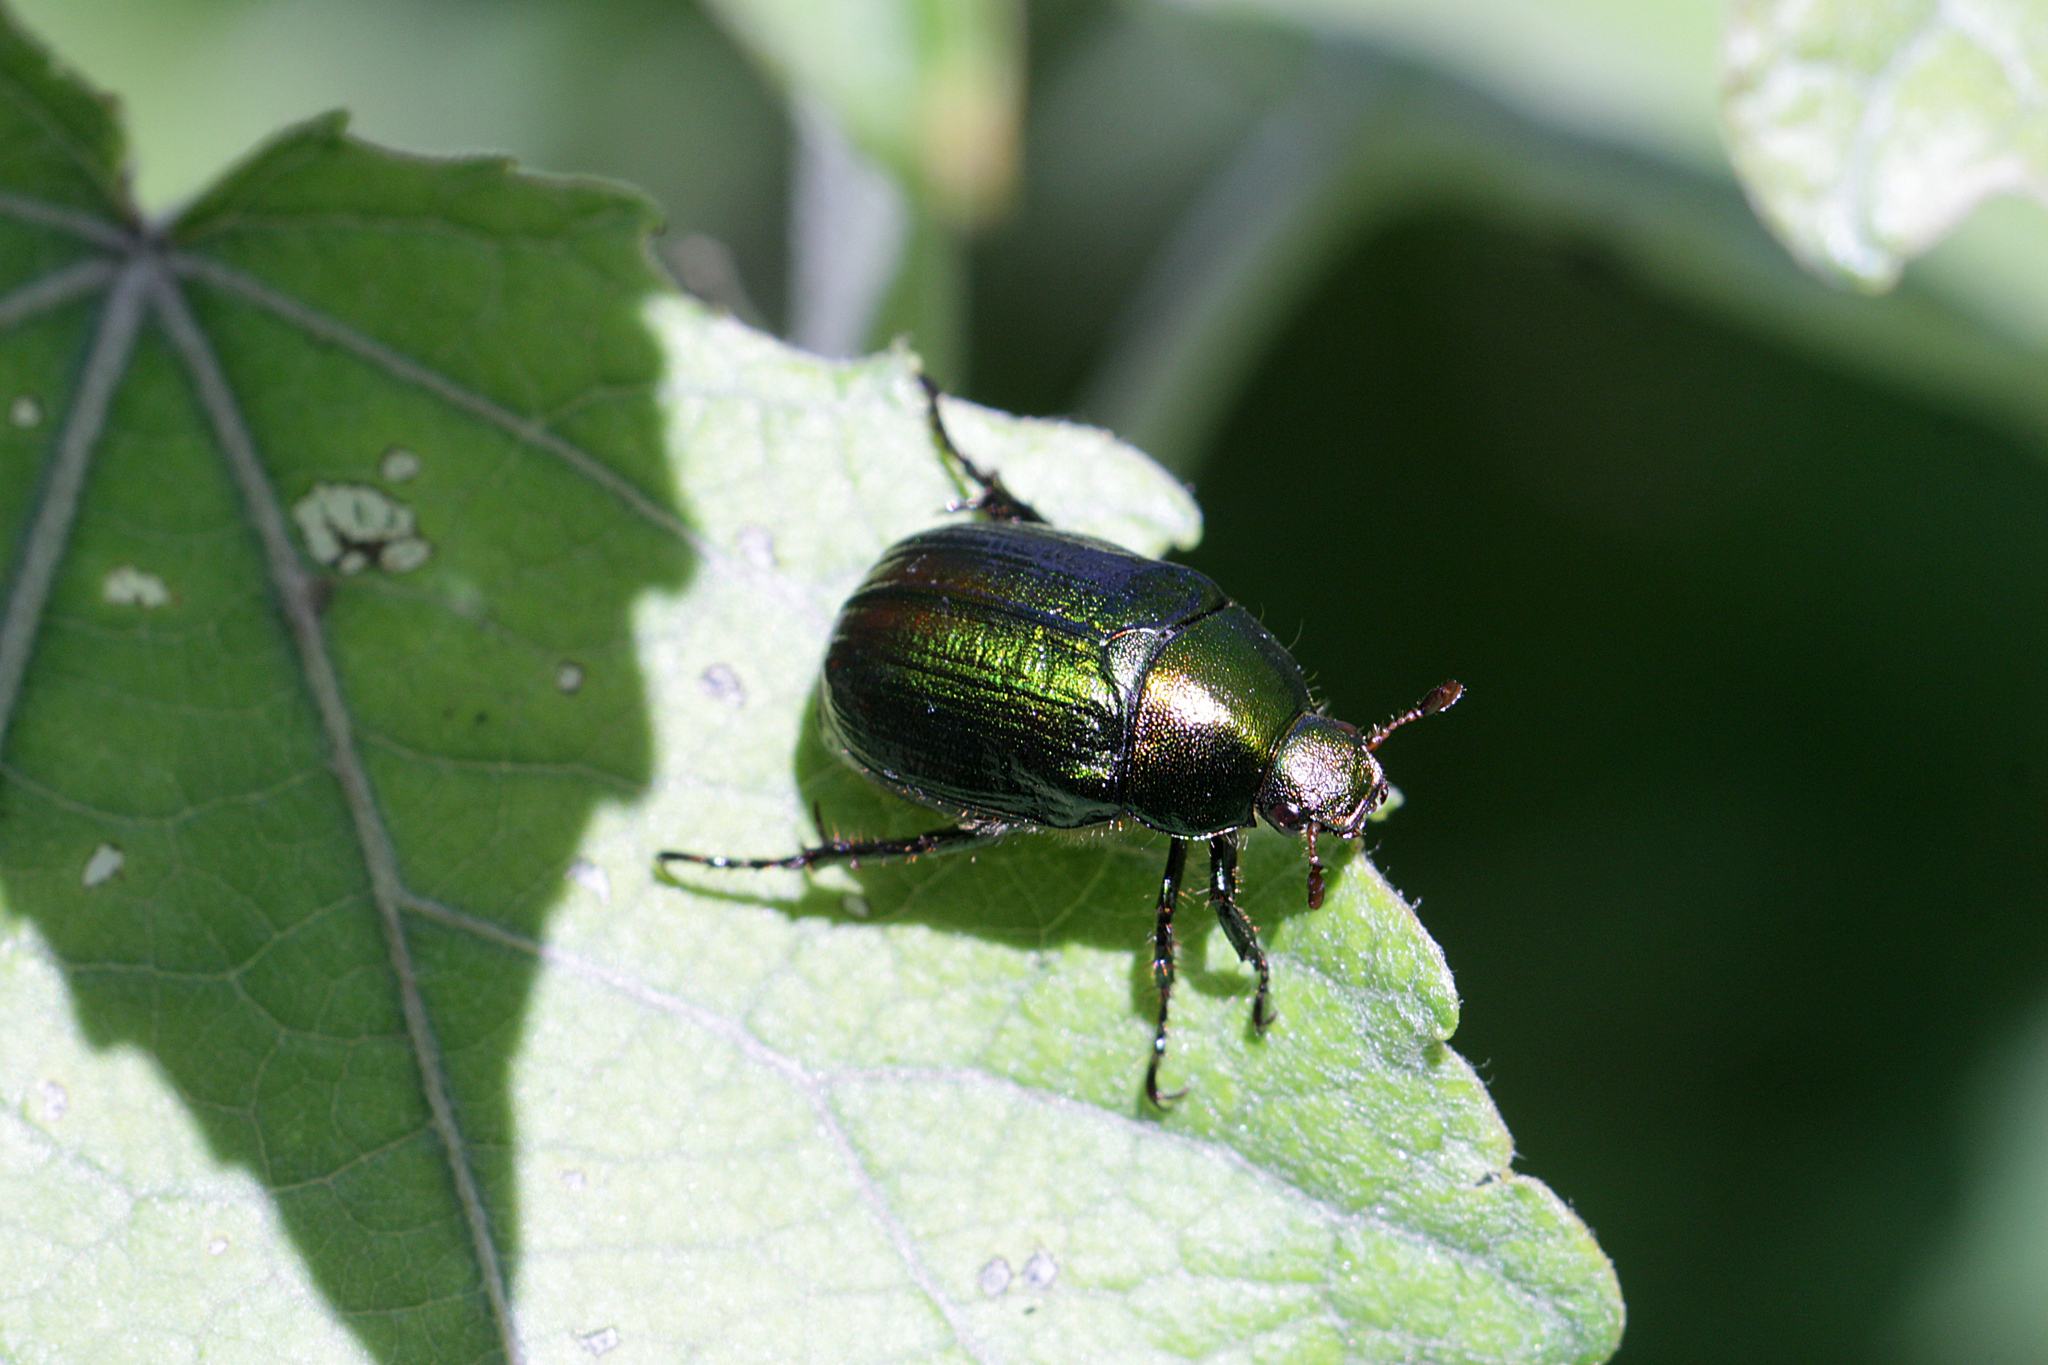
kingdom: Animalia
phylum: Arthropoda
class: Insecta
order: Coleoptera
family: Scarabaeidae
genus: Anomala
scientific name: Anomala dubia
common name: Dune chafer
